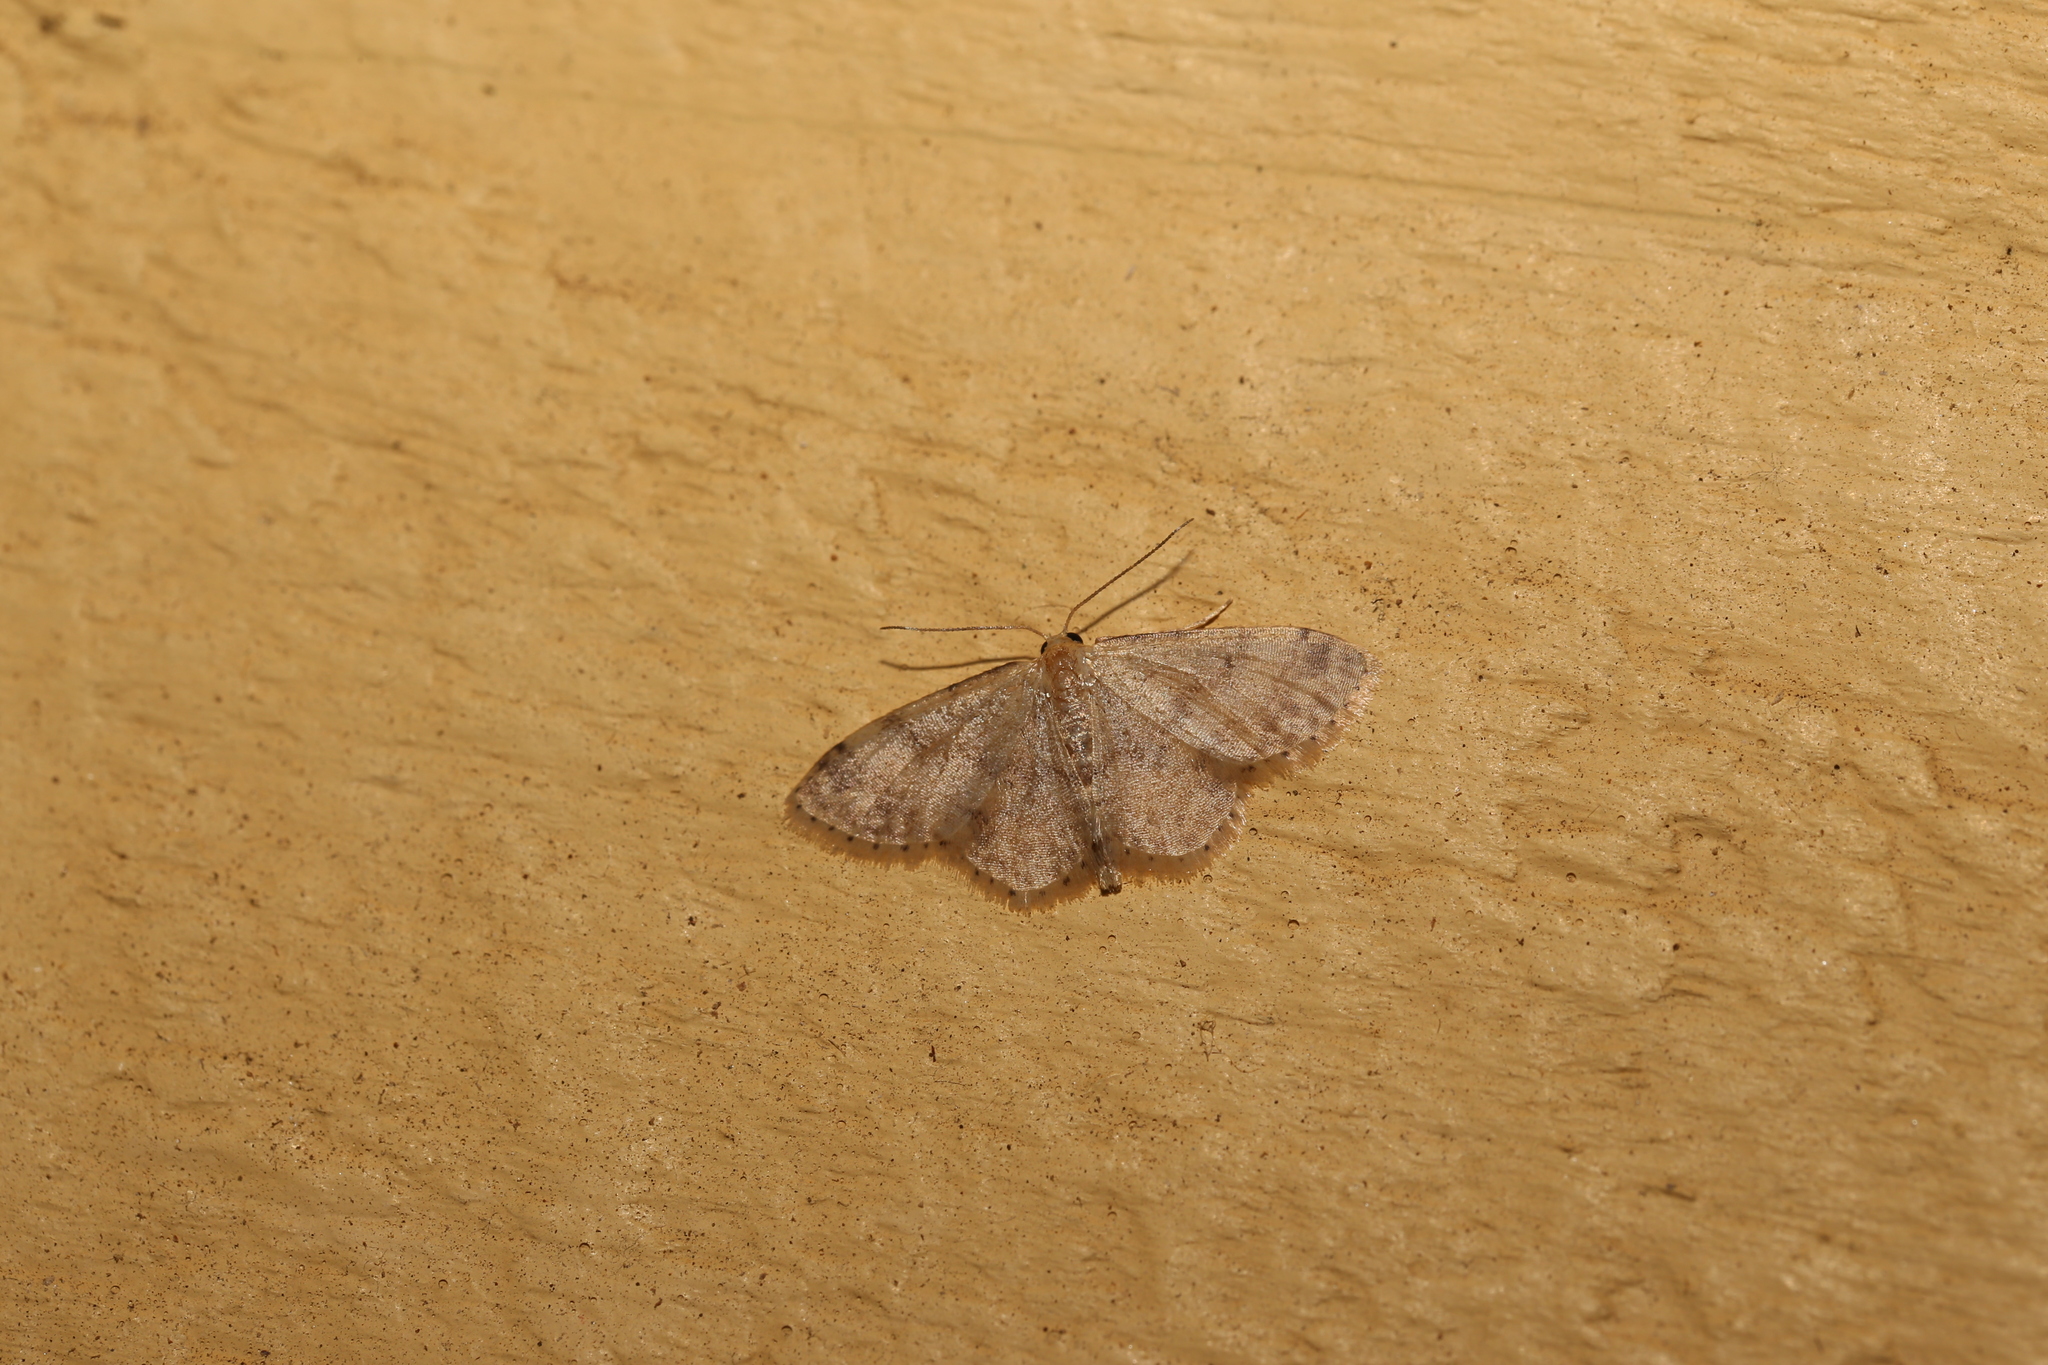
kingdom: Animalia
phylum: Arthropoda
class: Insecta
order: Lepidoptera
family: Geometridae
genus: Idaea
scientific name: Idaea pilosata
